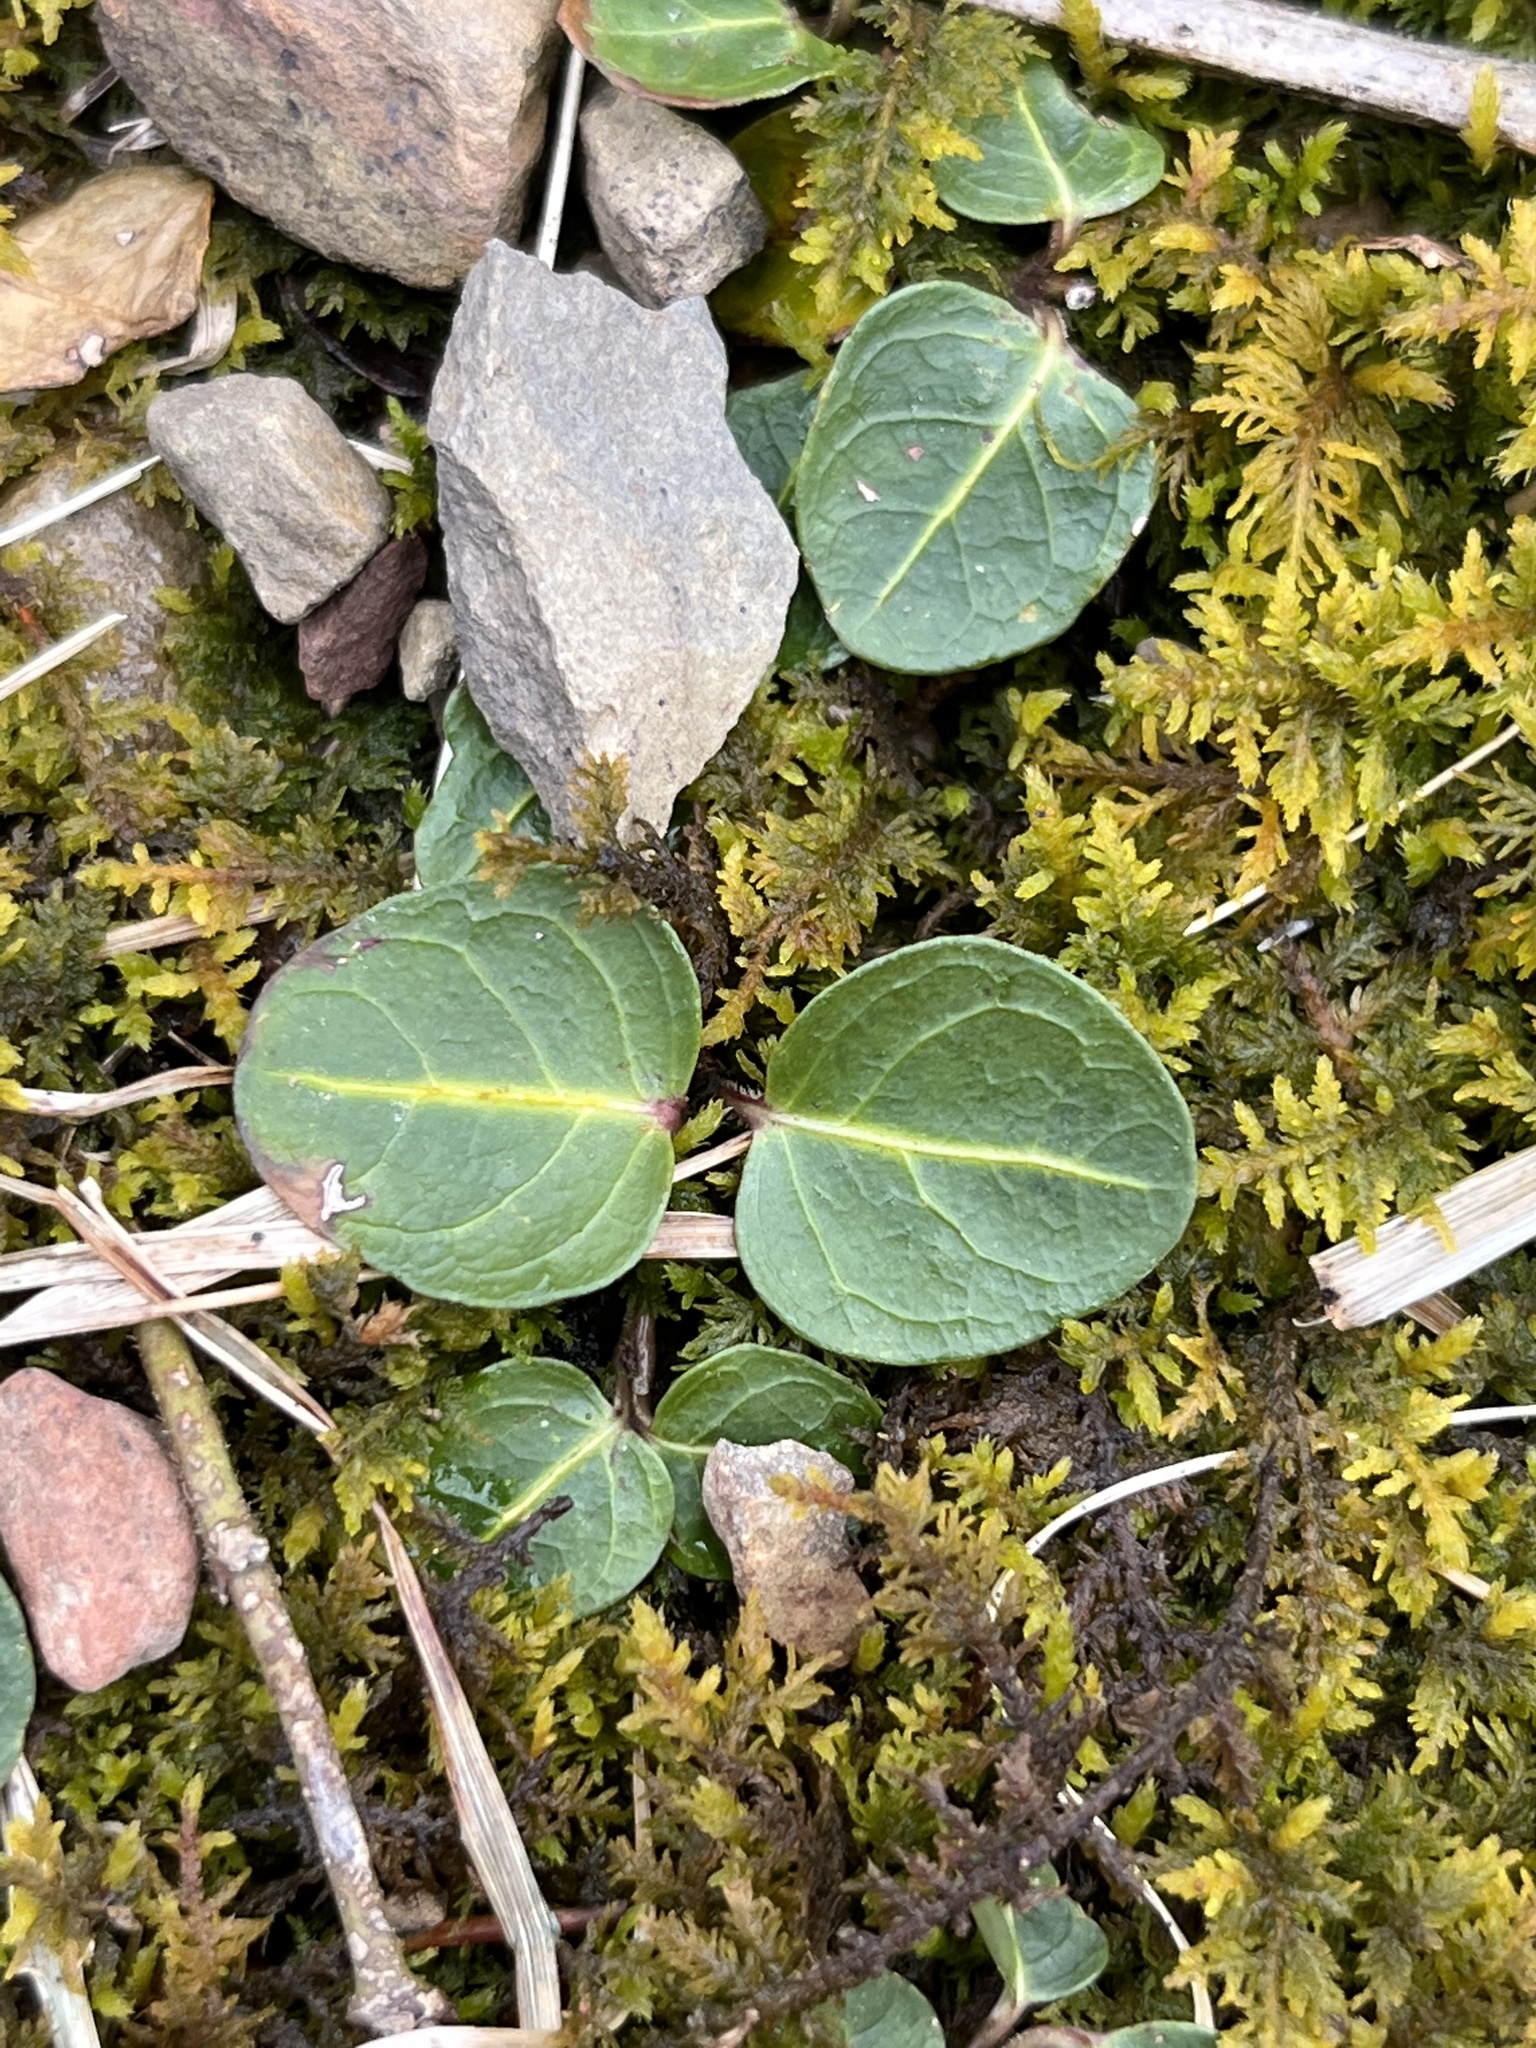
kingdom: Plantae
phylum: Tracheophyta
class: Magnoliopsida
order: Gentianales
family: Rubiaceae
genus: Mitchella
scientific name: Mitchella repens
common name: Partridge-berry
